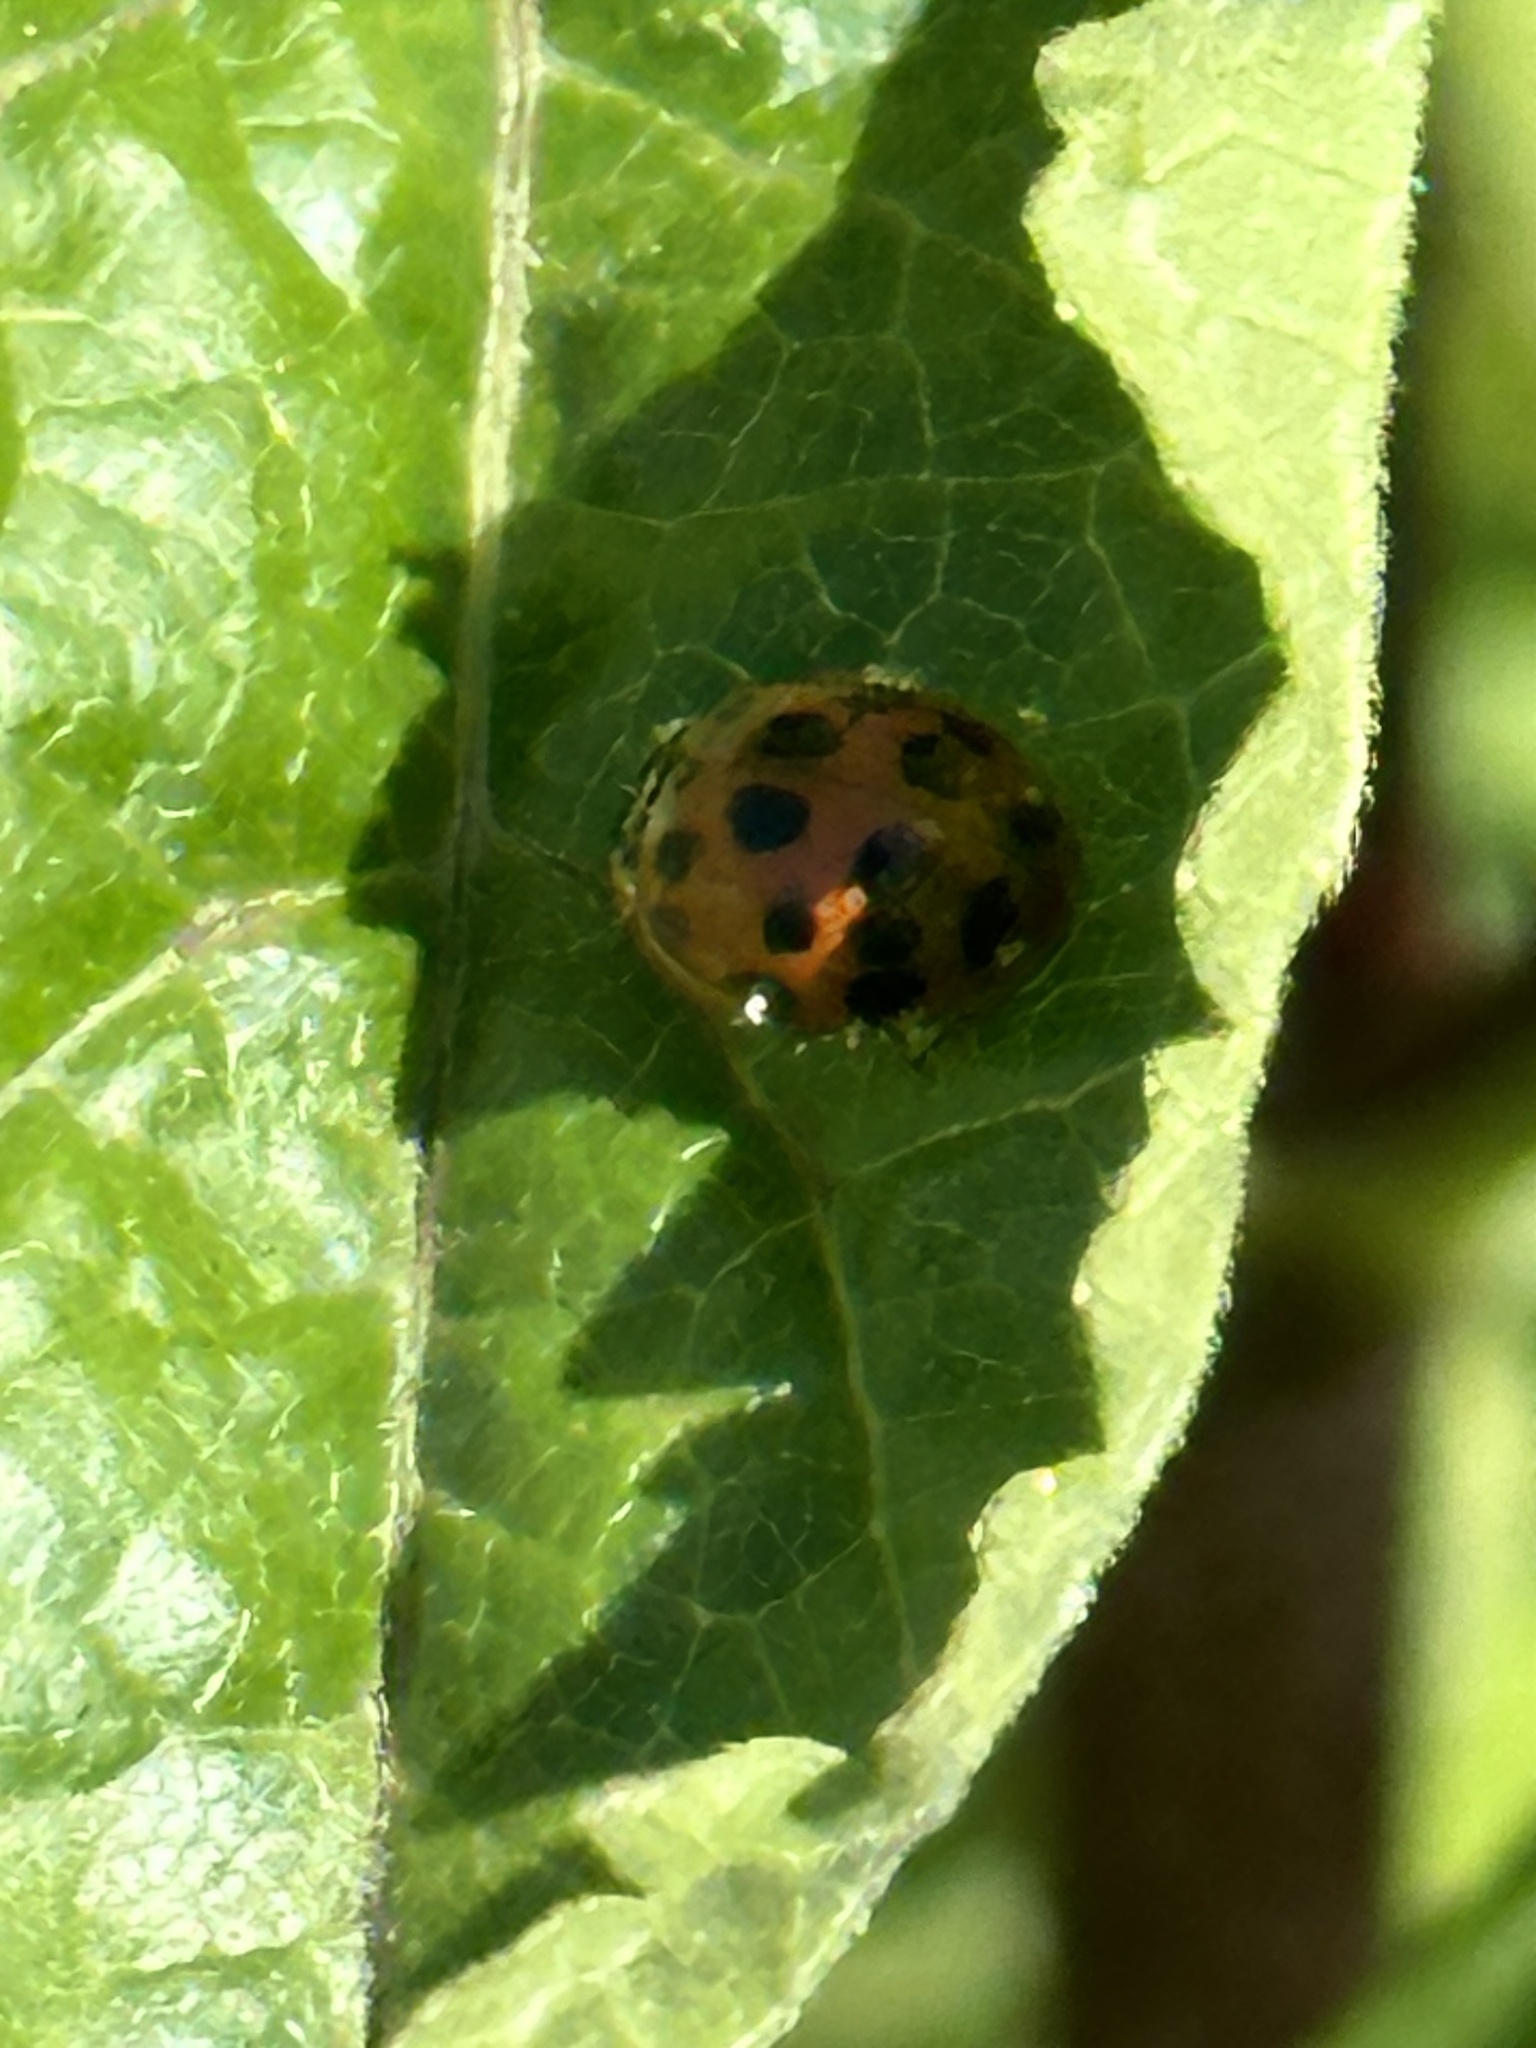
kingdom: Animalia
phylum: Arthropoda
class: Insecta
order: Coleoptera
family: Coccinellidae
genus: Harmonia
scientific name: Harmonia axyridis
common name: Harlequin ladybird
